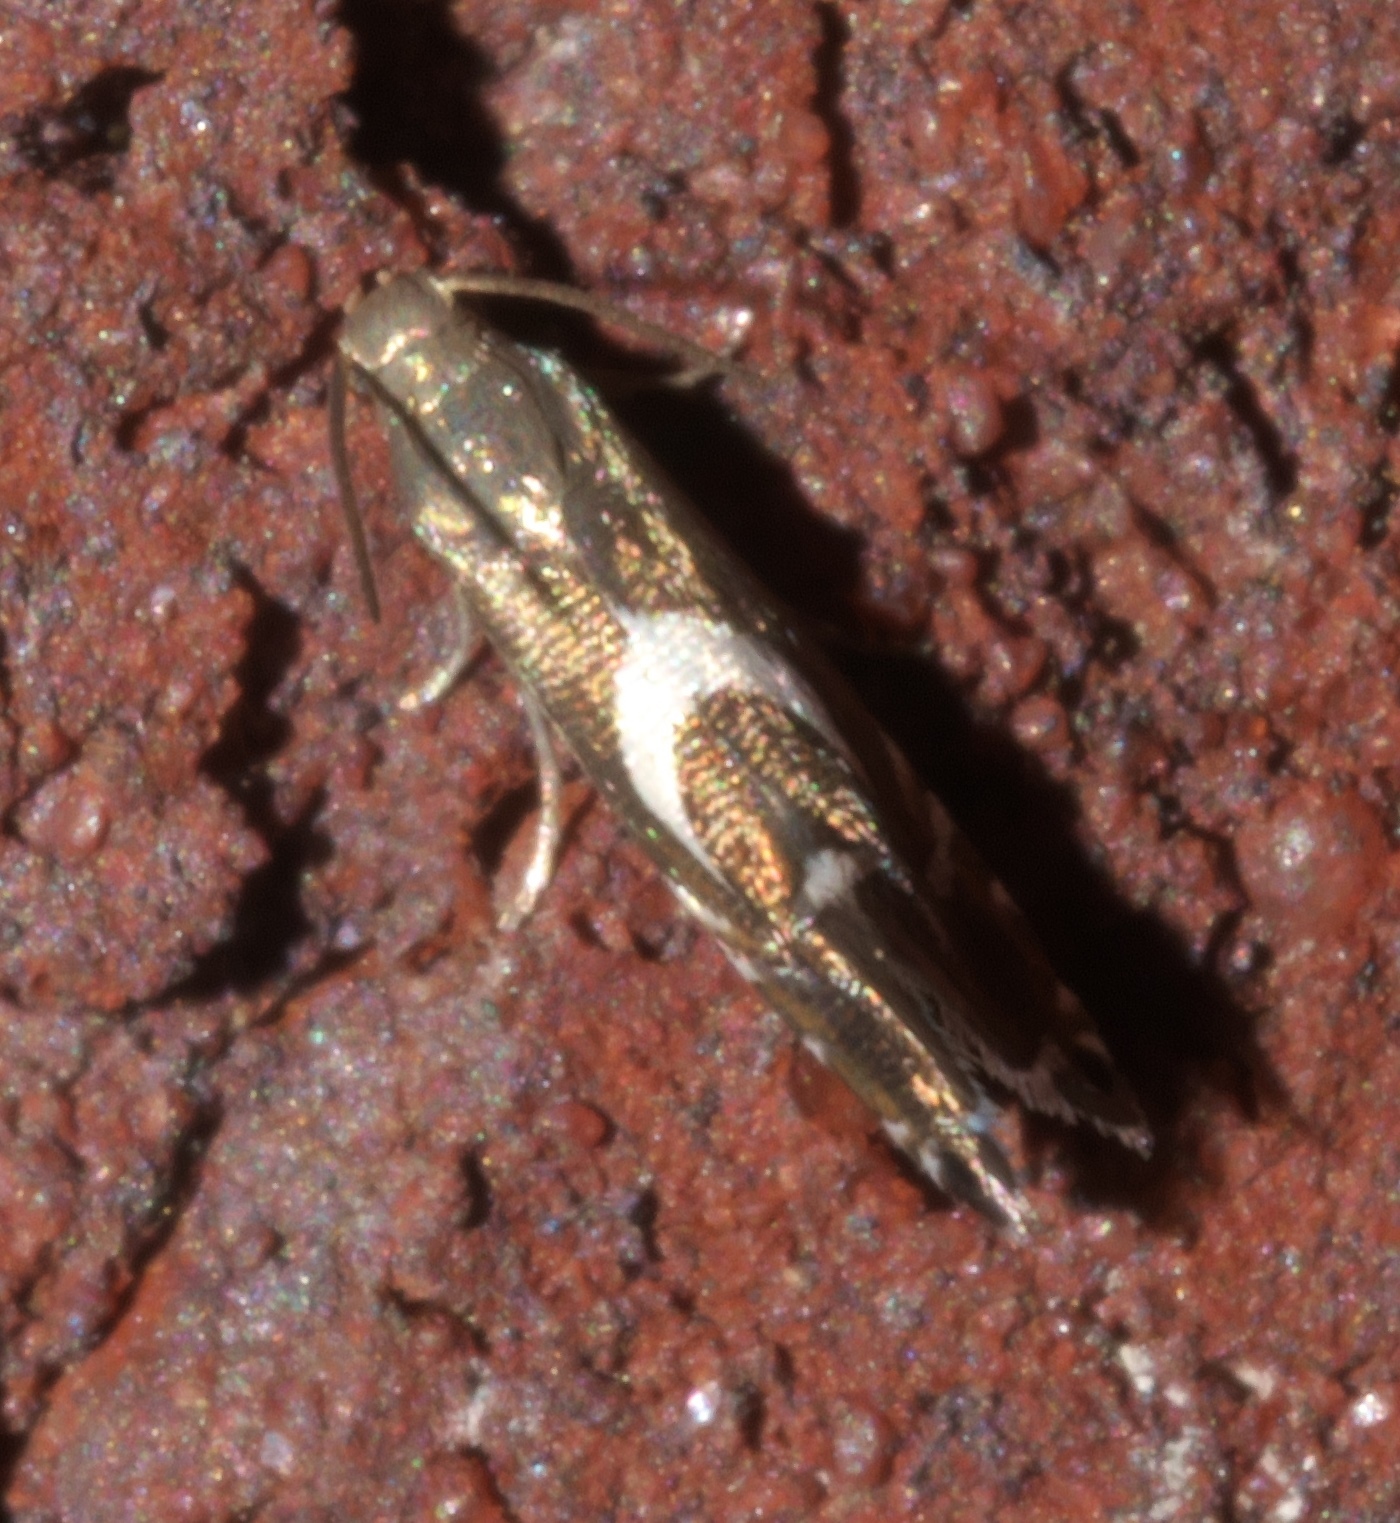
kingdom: Animalia
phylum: Arthropoda
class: Insecta
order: Lepidoptera
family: Glyphipterigidae
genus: Glyphipterix
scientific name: Glyphipterix Diploschizia impigritella
